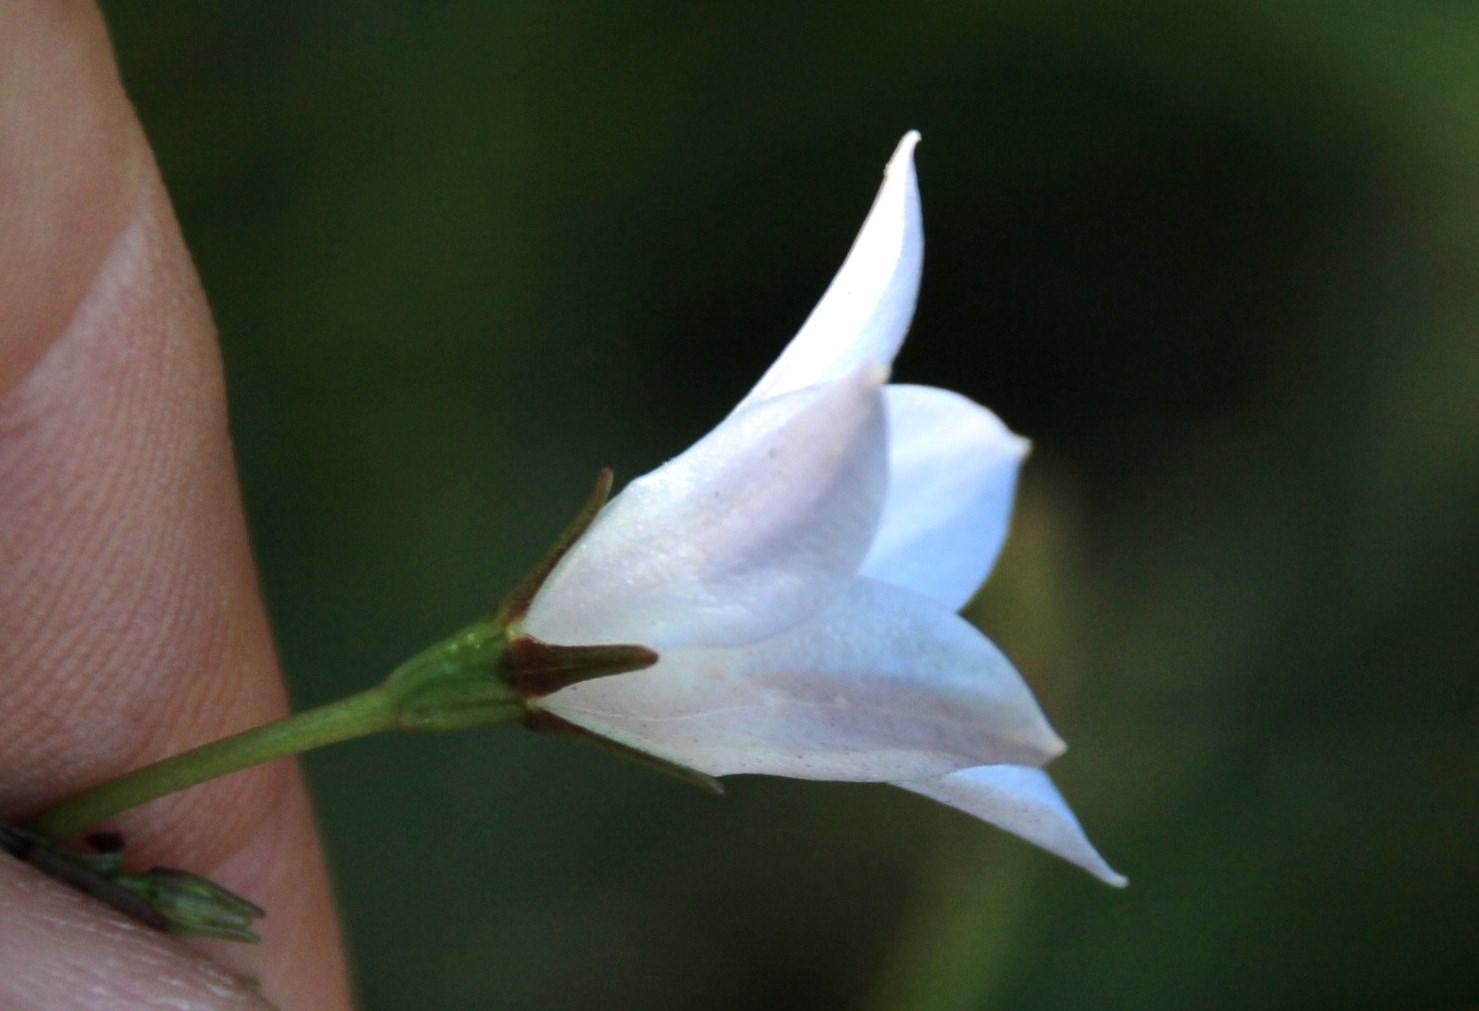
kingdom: Plantae
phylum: Tracheophyta
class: Magnoliopsida
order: Asterales
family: Campanulaceae
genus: Wahlenbergia
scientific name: Wahlenbergia obovata
